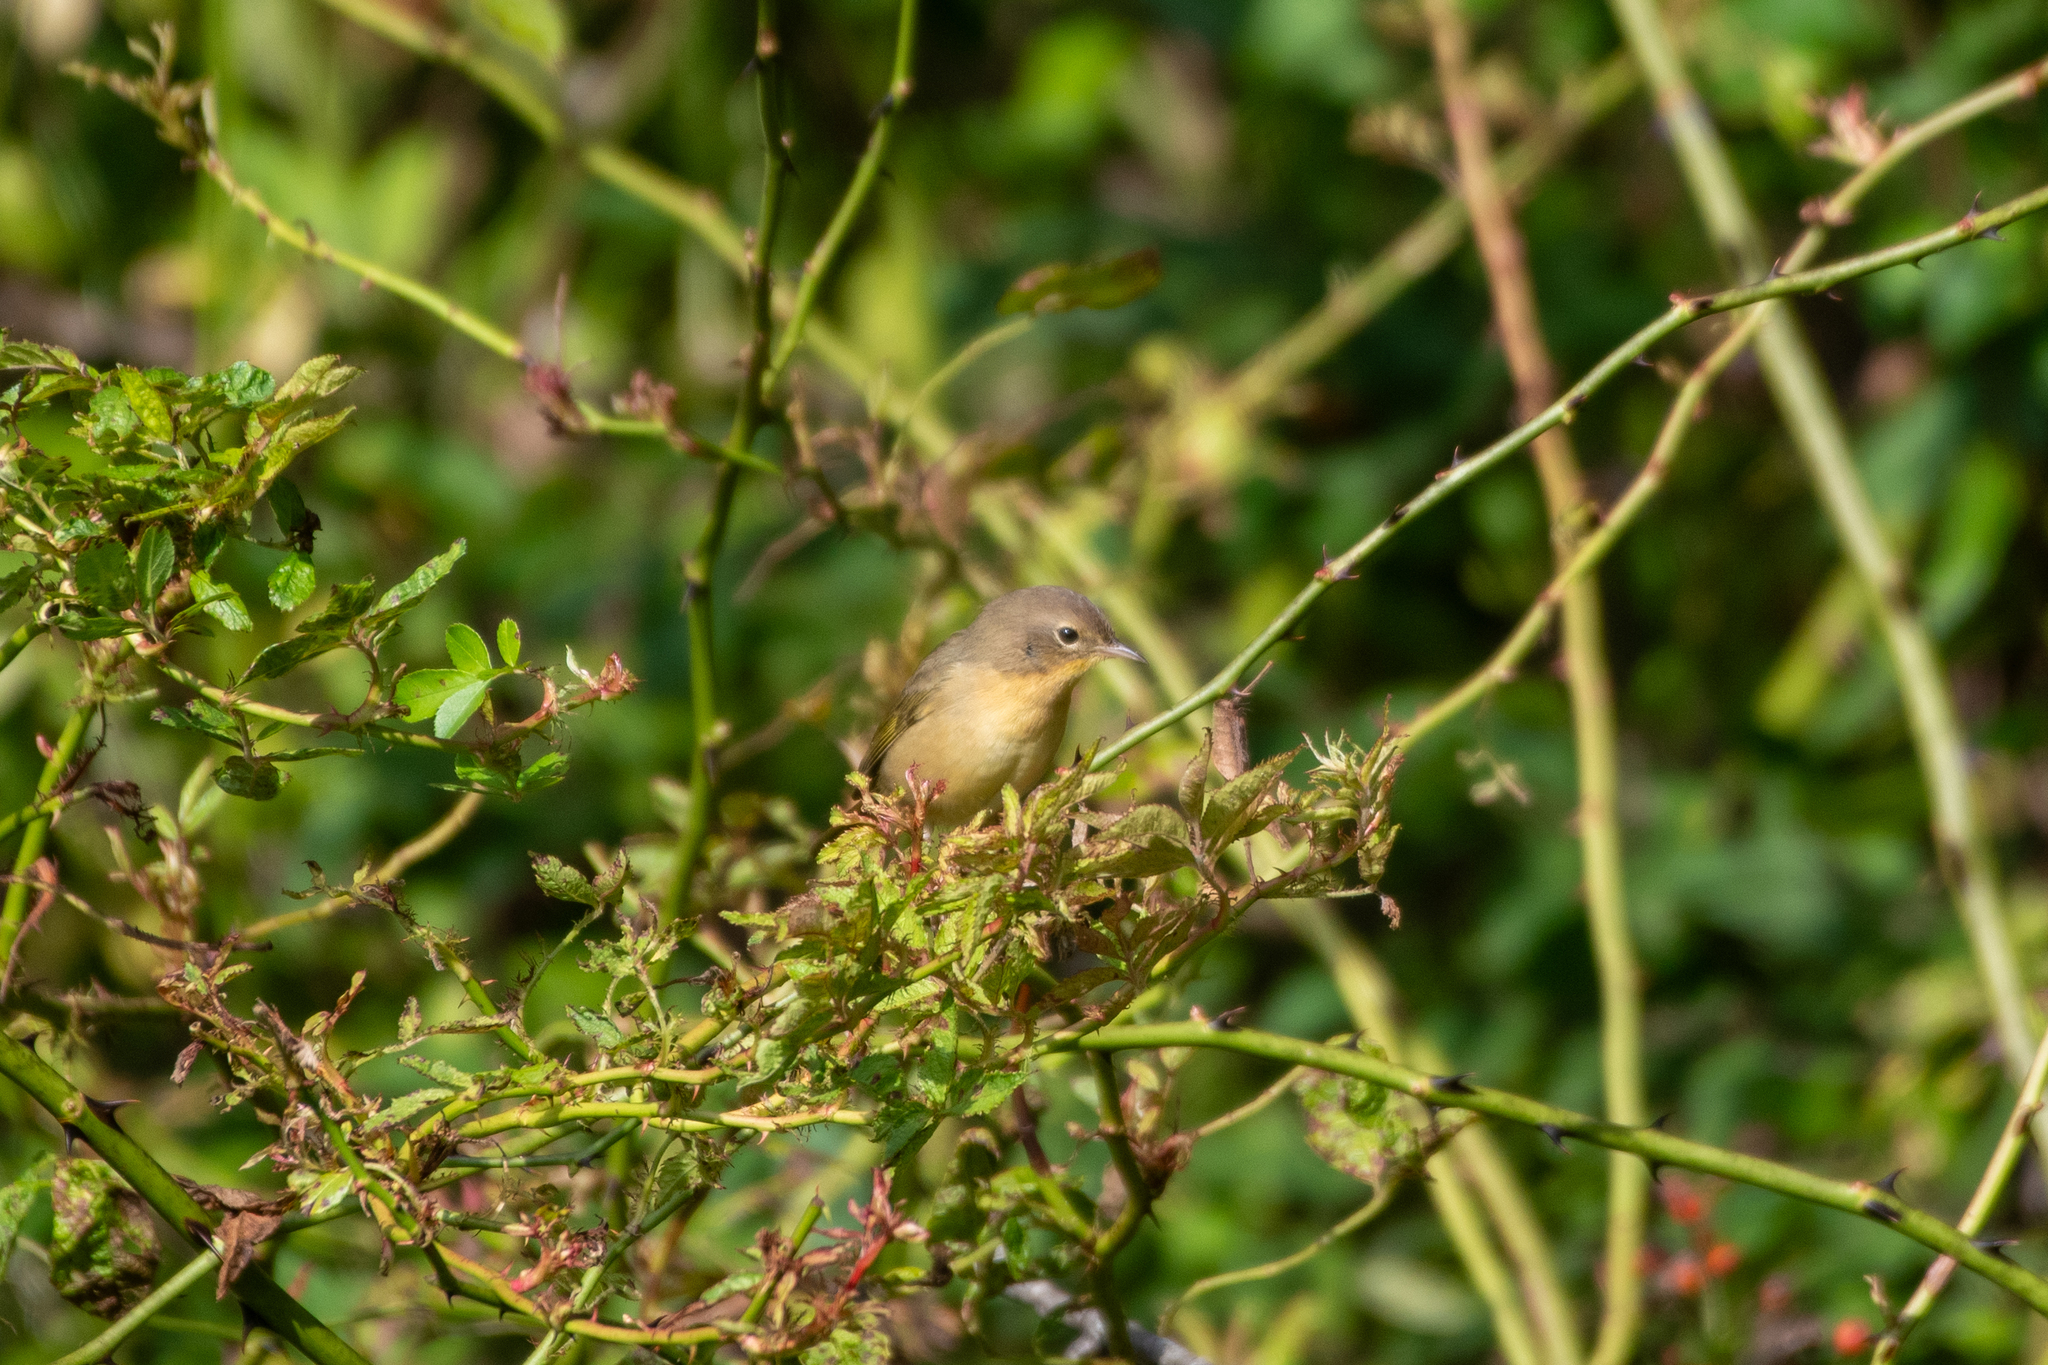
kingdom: Animalia
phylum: Chordata
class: Aves
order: Passeriformes
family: Parulidae
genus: Geothlypis
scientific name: Geothlypis trichas
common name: Common yellowthroat
